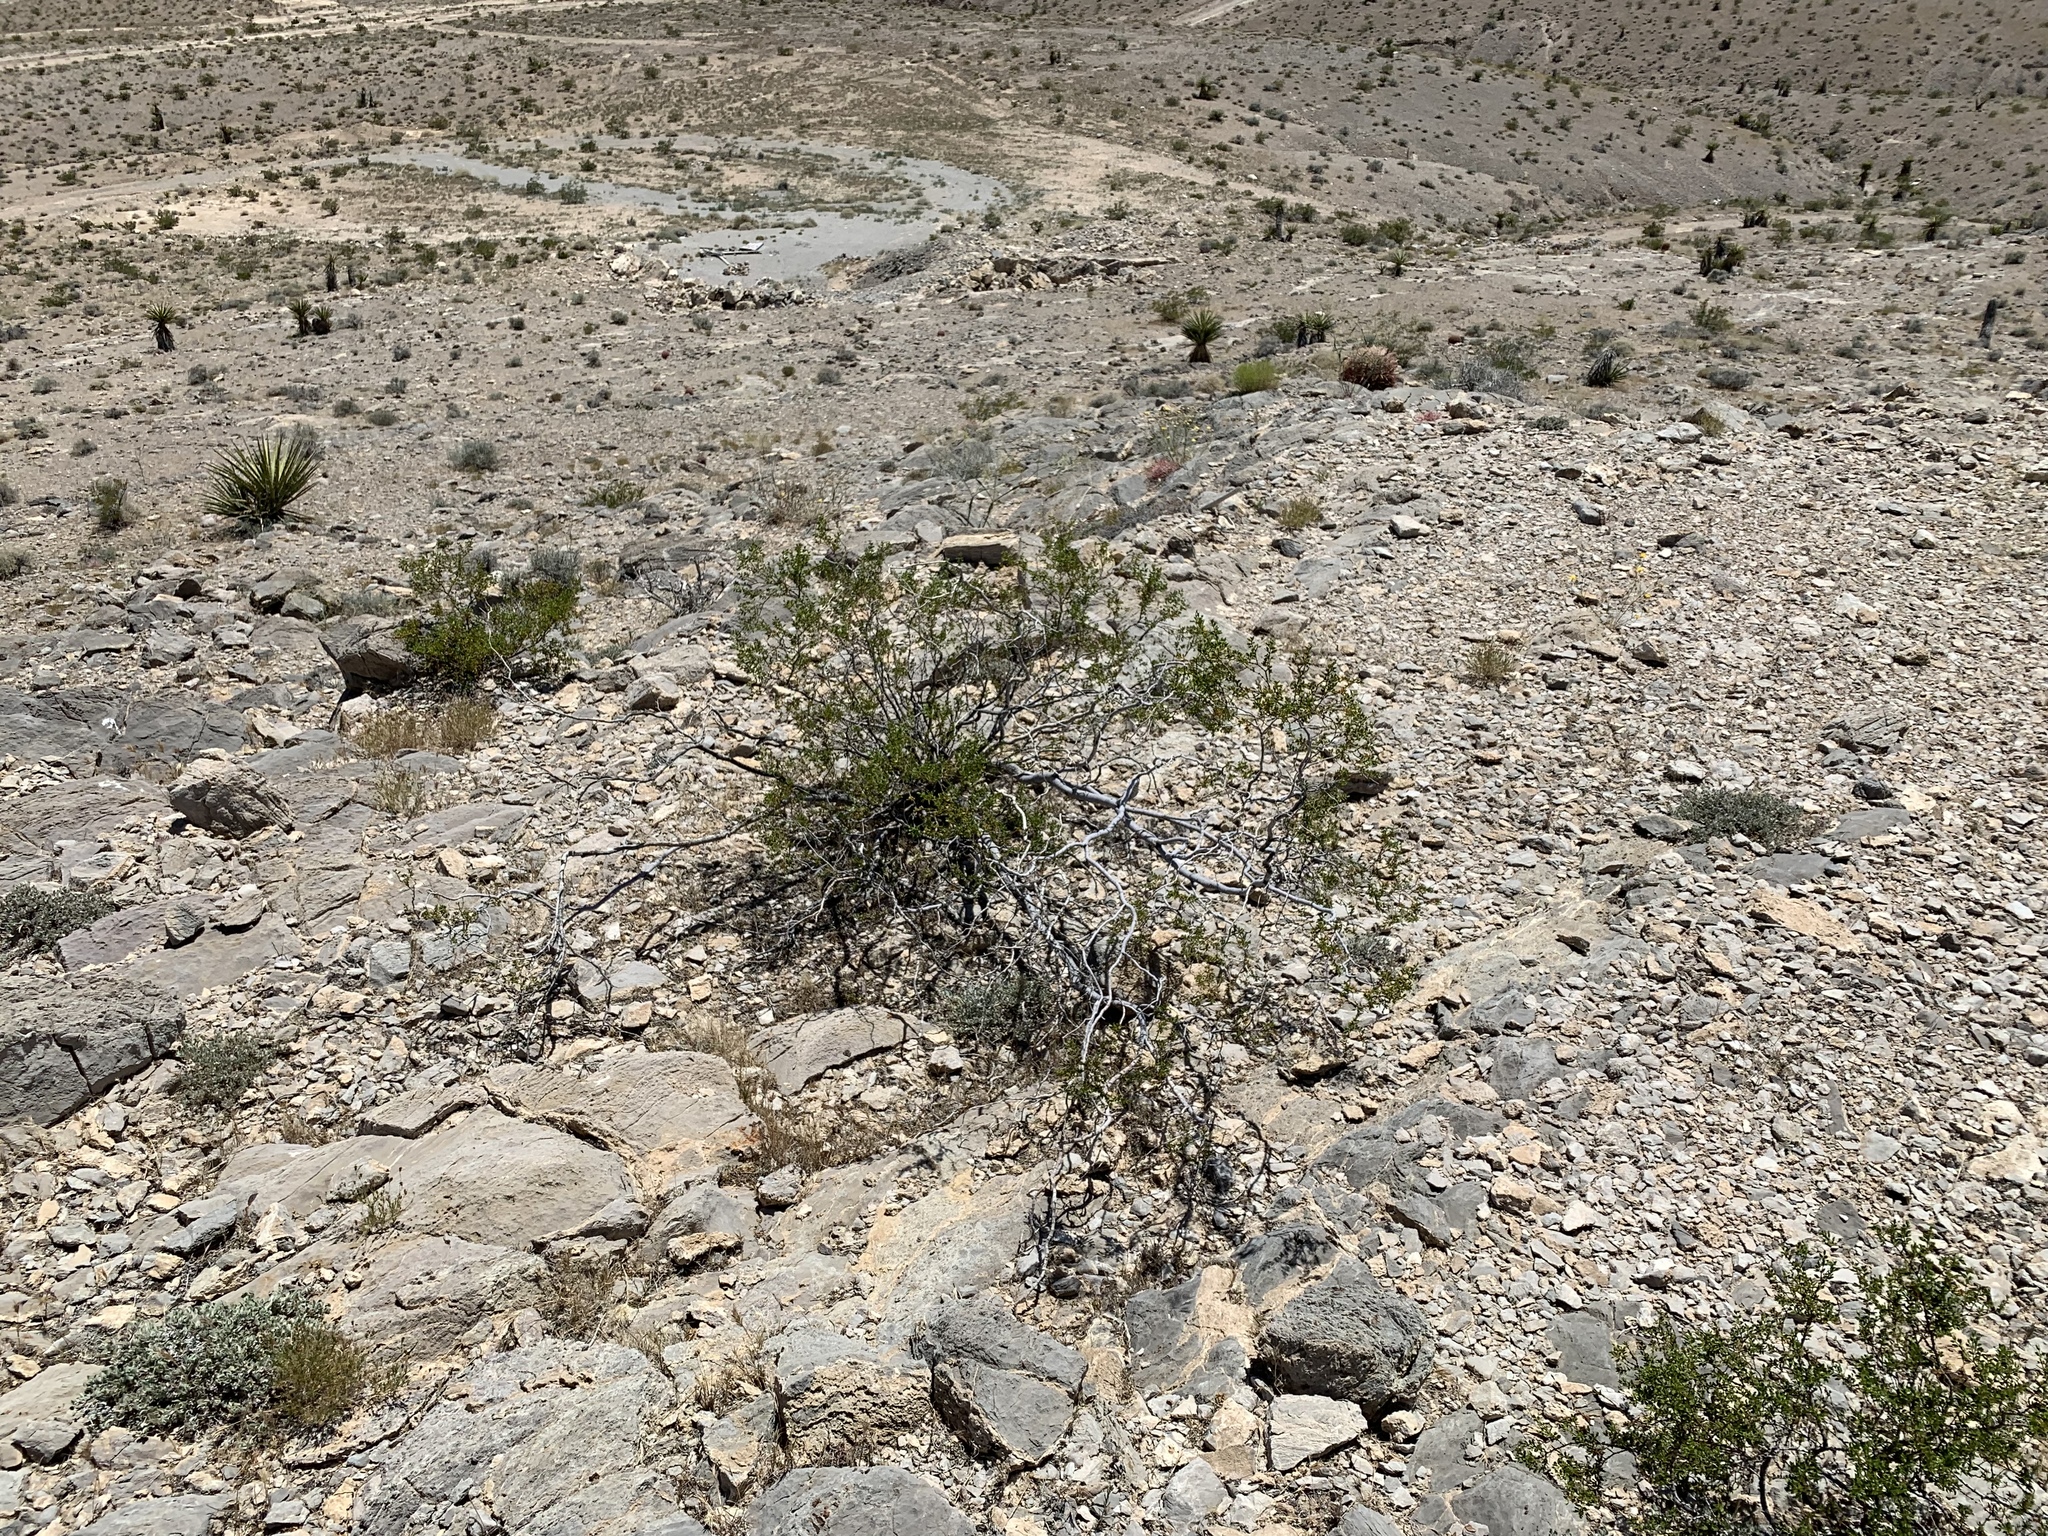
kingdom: Plantae
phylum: Tracheophyta
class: Magnoliopsida
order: Zygophyllales
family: Zygophyllaceae
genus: Larrea
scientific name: Larrea tridentata
